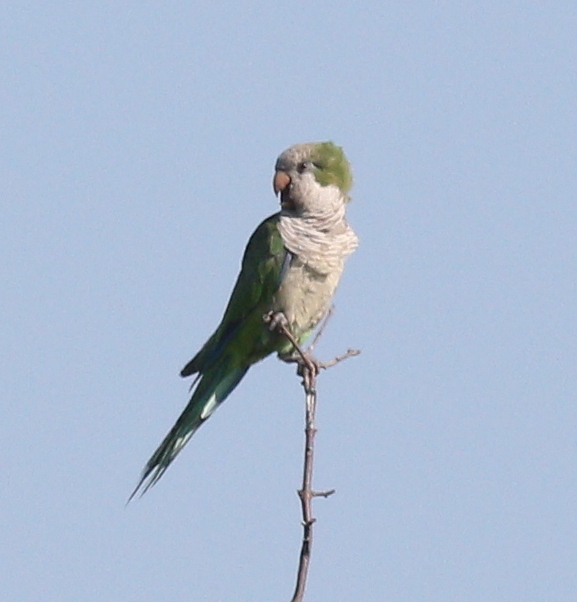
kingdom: Animalia
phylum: Chordata
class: Aves
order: Psittaciformes
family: Psittacidae
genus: Myiopsitta
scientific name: Myiopsitta monachus
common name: Monk parakeet
